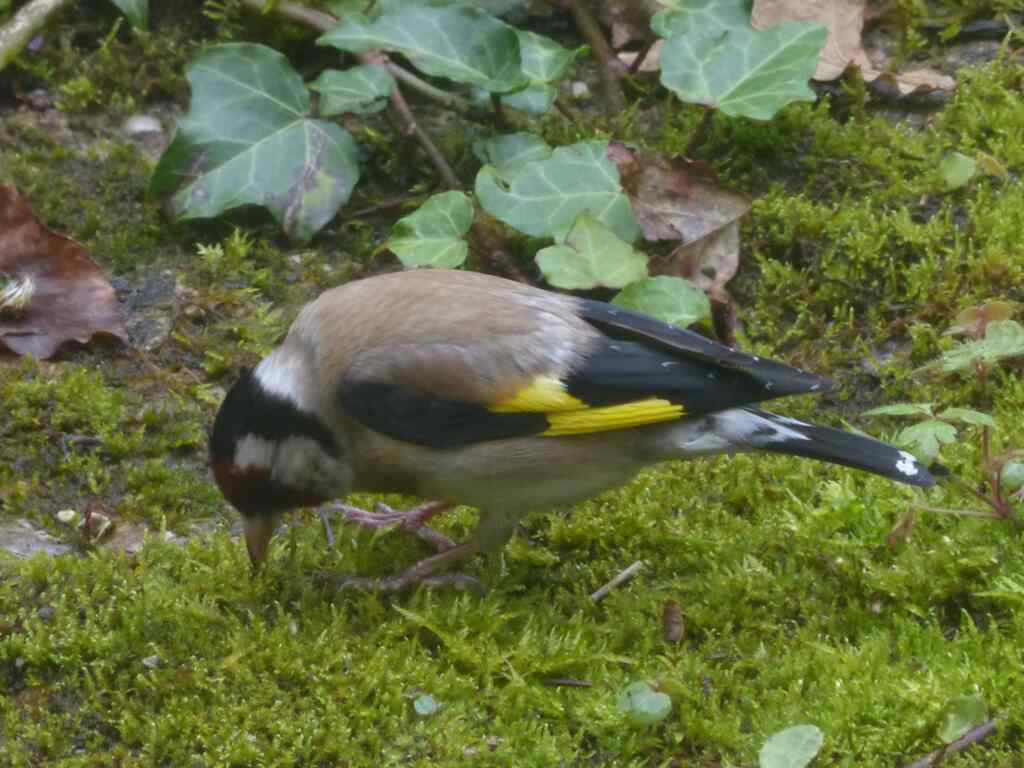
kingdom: Animalia
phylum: Chordata
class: Aves
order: Passeriformes
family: Fringillidae
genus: Carduelis
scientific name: Carduelis carduelis
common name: European goldfinch
